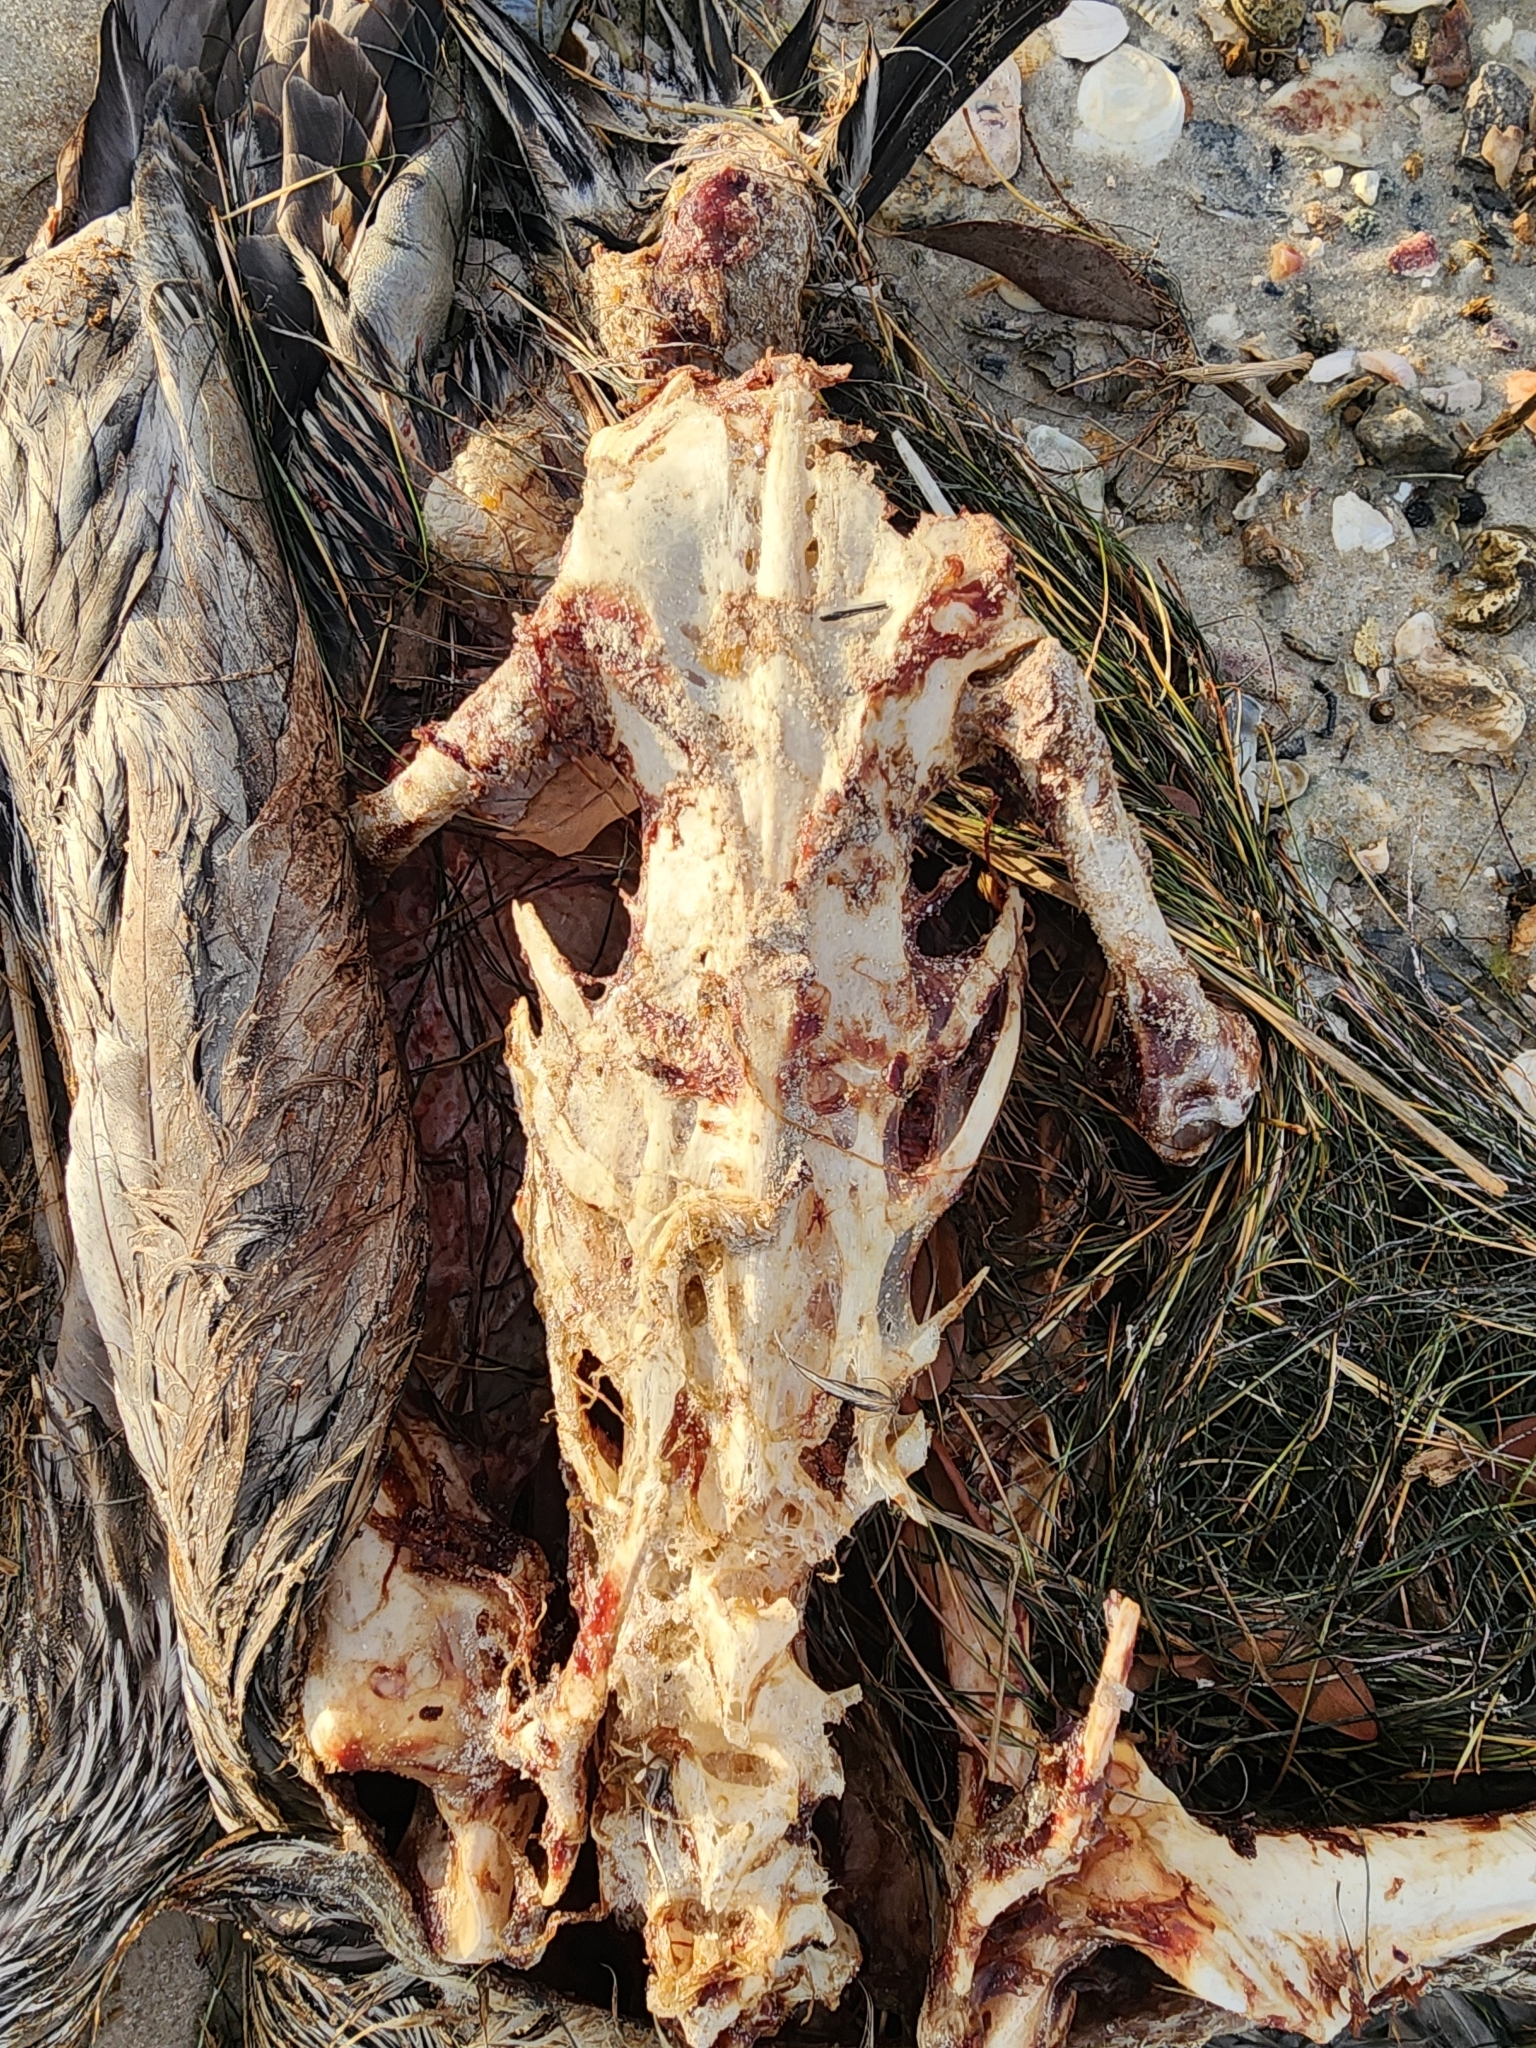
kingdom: Animalia
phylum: Chordata
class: Aves
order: Pelecaniformes
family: Pelecanidae
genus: Pelecanus
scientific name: Pelecanus occidentalis
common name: Brown pelican
